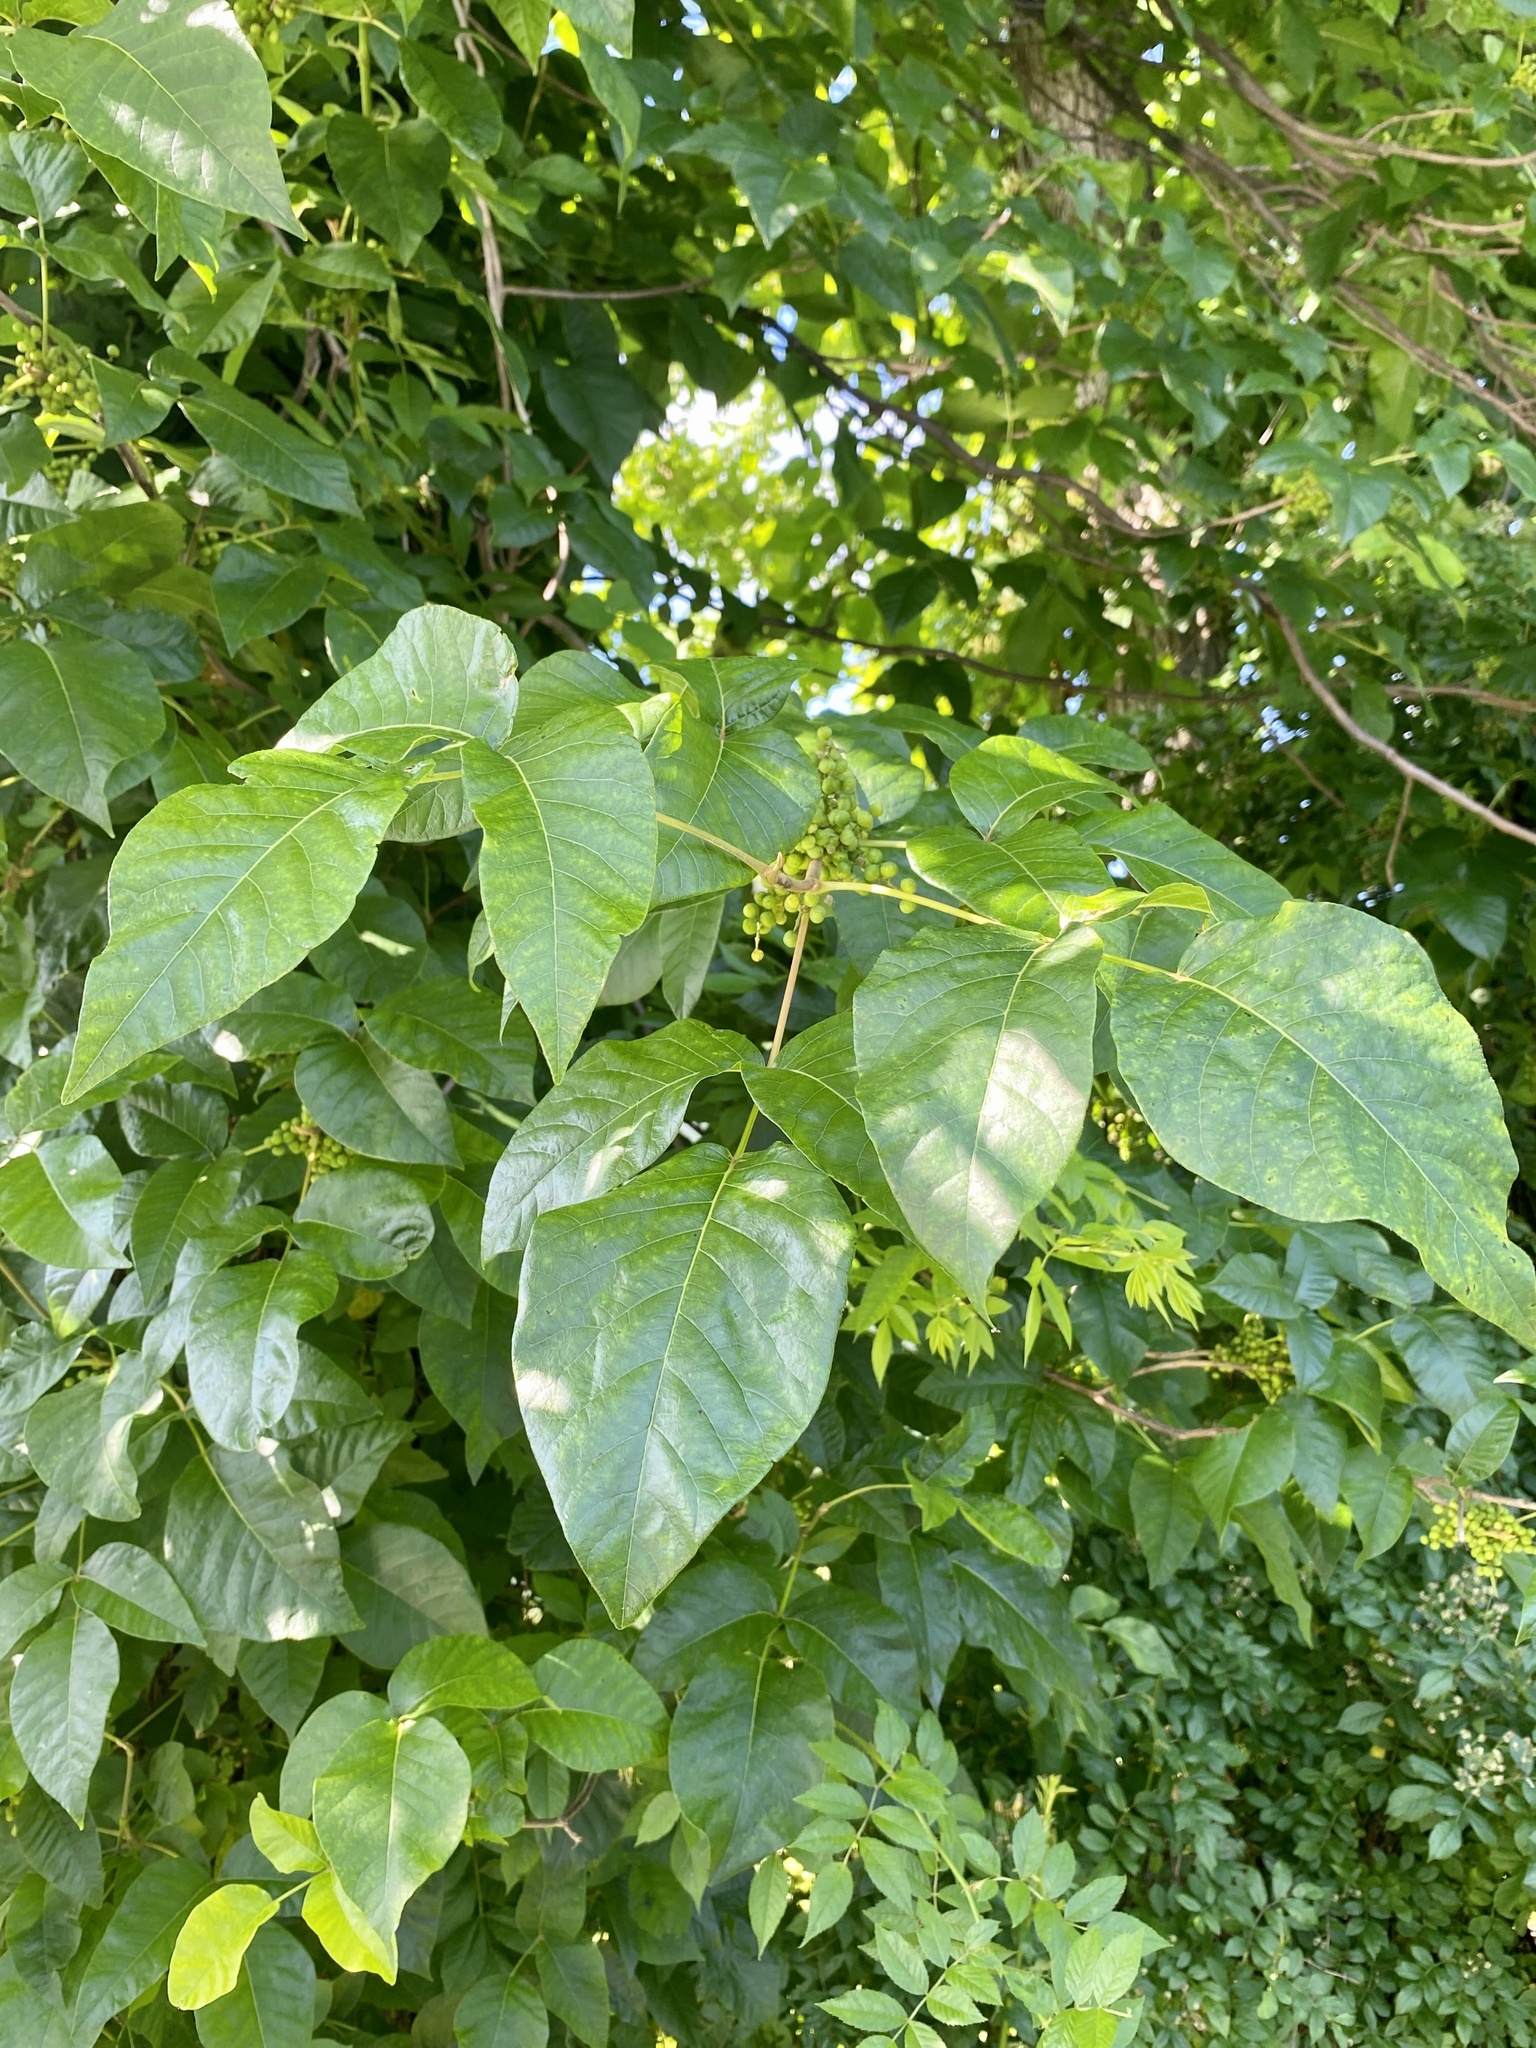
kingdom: Plantae
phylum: Tracheophyta
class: Magnoliopsida
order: Sapindales
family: Anacardiaceae
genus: Toxicodendron
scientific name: Toxicodendron radicans
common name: Poison ivy
